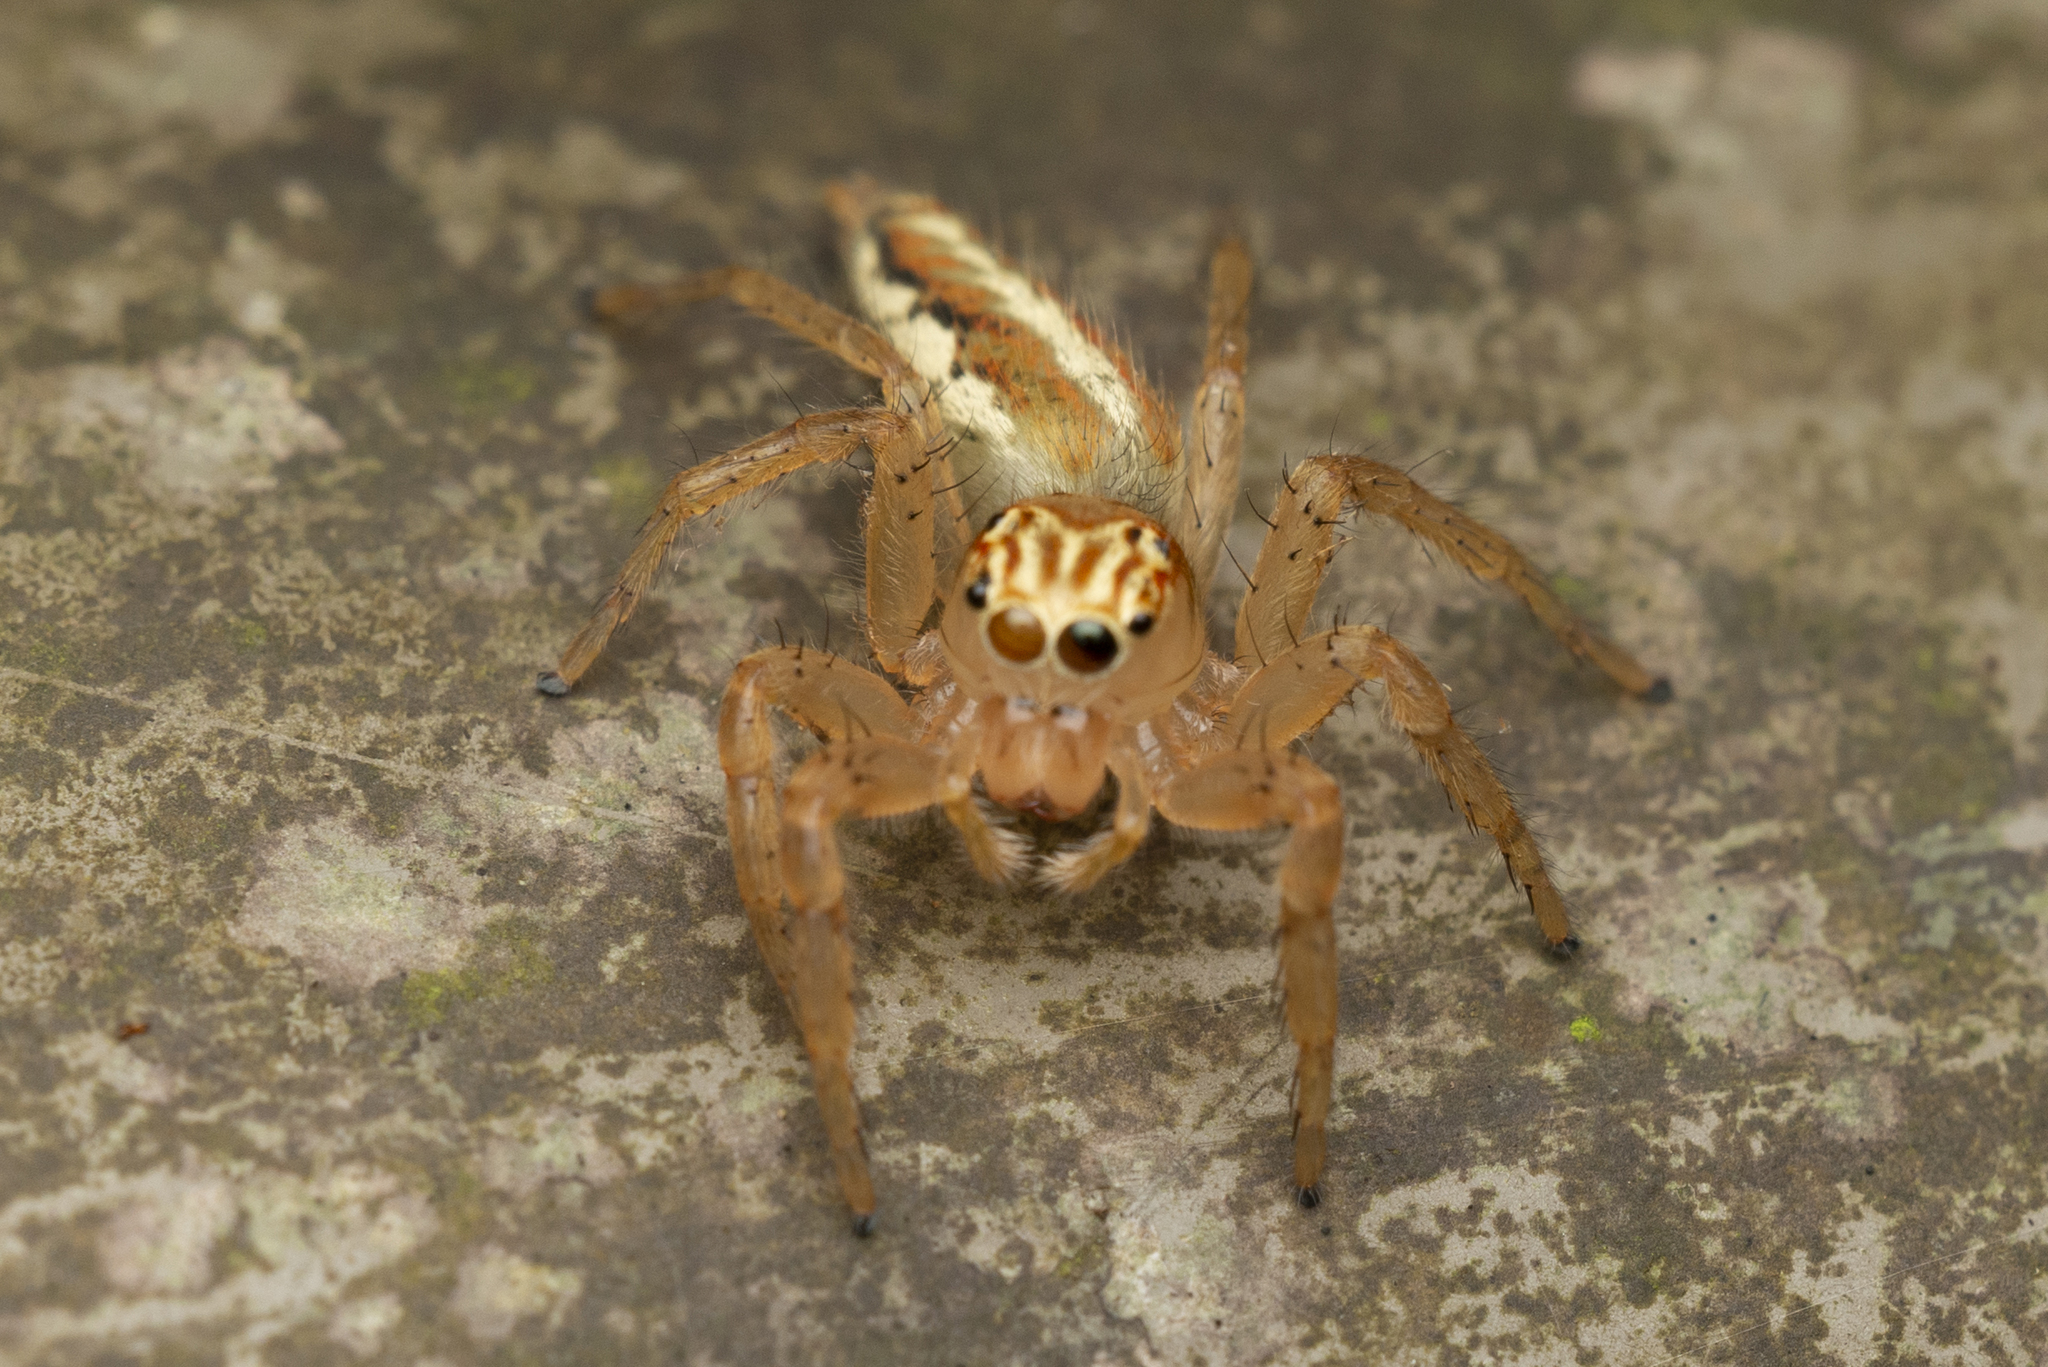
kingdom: Animalia
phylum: Arthropoda
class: Arachnida
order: Araneae
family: Salticidae
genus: Telamonia
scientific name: Telamonia caprina
